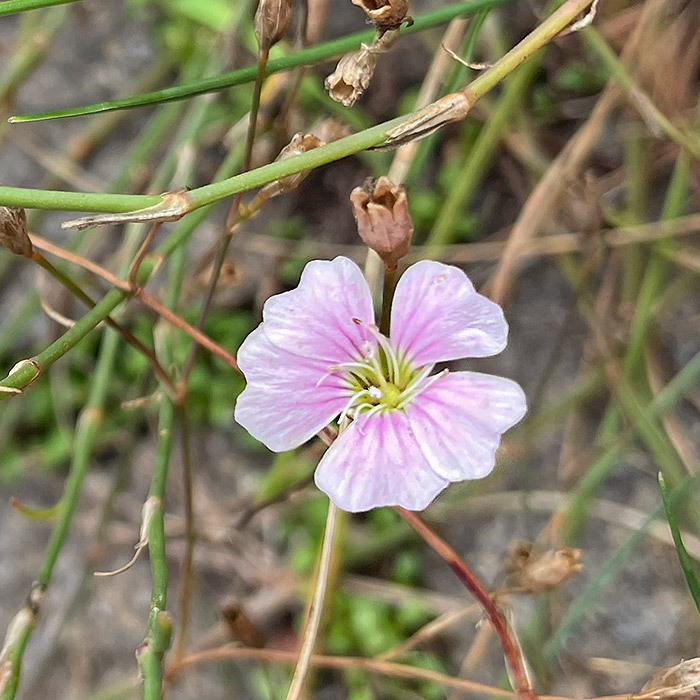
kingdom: Plantae
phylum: Tracheophyta
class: Magnoliopsida
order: Caryophyllales
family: Caryophyllaceae
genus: Petrorhagia
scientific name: Petrorhagia saxifraga
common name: Tunicflower
